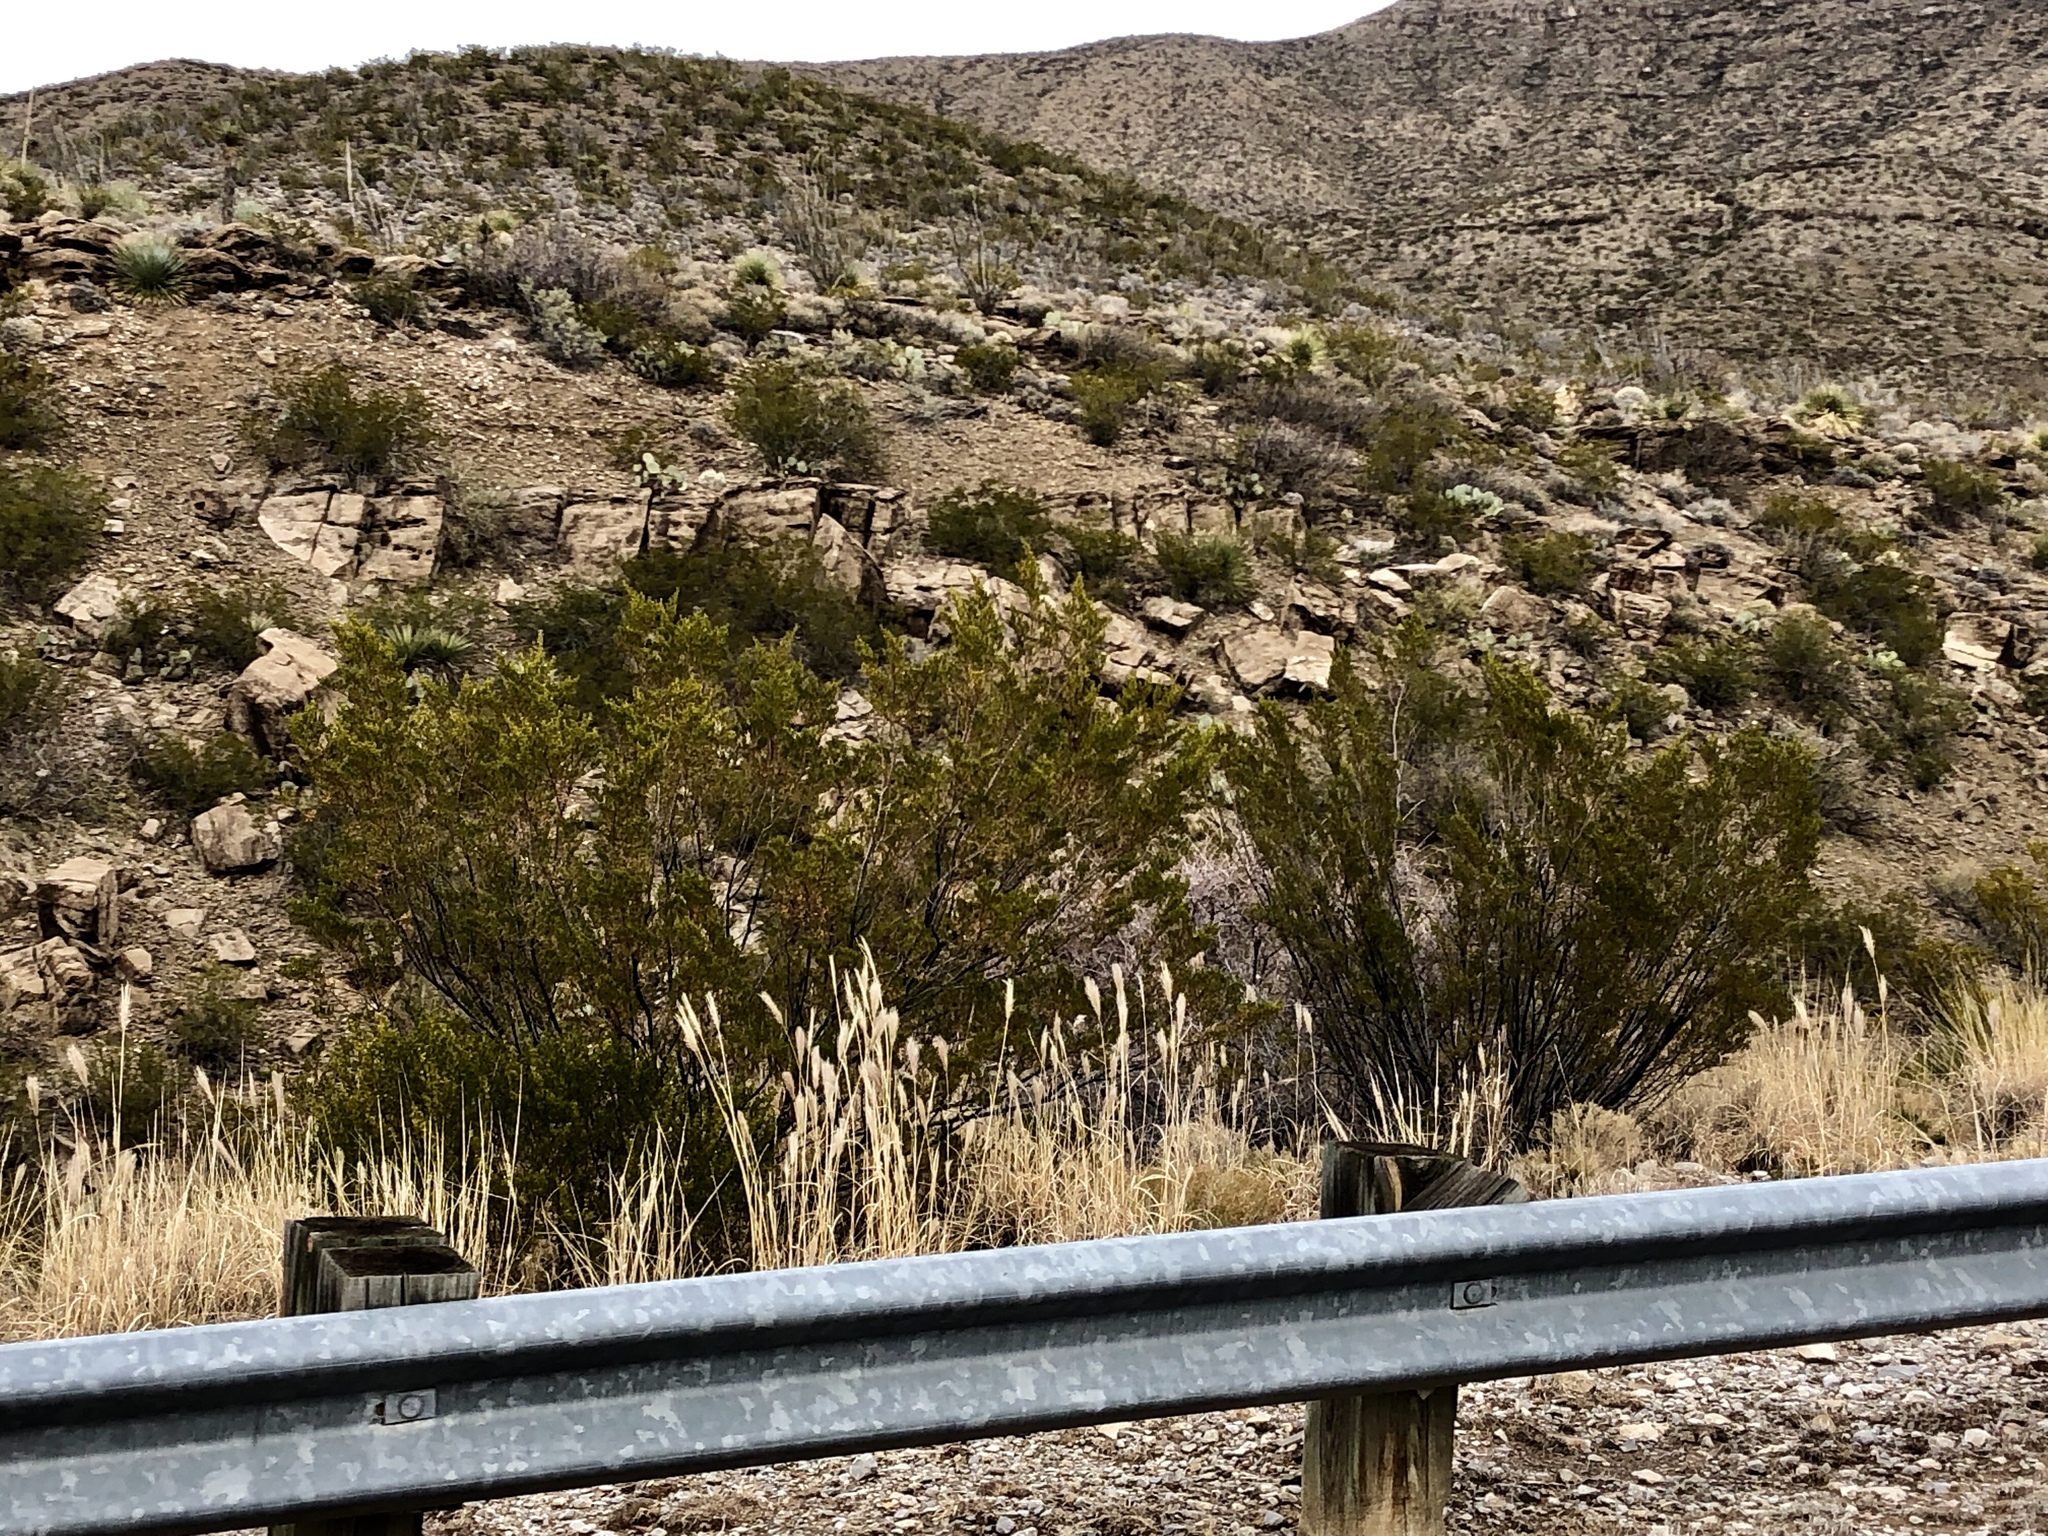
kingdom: Plantae
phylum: Tracheophyta
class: Magnoliopsida
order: Zygophyllales
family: Zygophyllaceae
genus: Larrea
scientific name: Larrea tridentata
